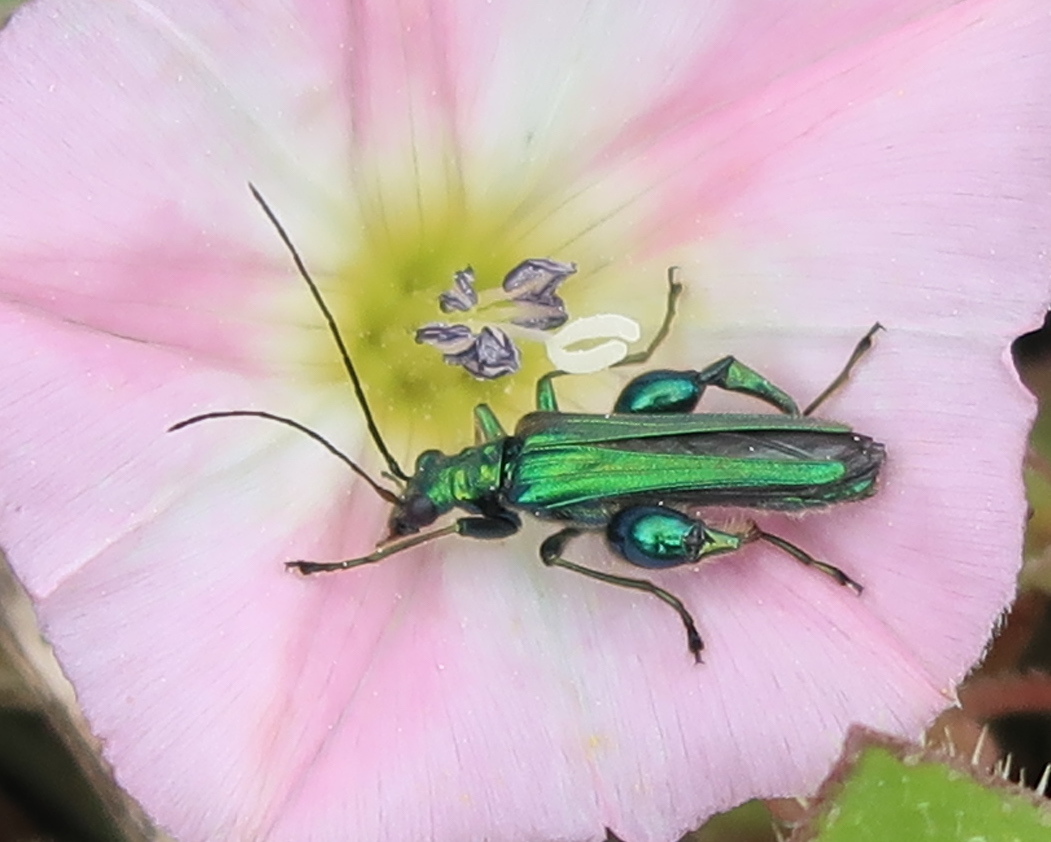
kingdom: Animalia
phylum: Arthropoda
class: Insecta
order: Coleoptera
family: Oedemeridae
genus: Oedemera
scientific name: Oedemera nobilis
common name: Swollen-thighed beetle
